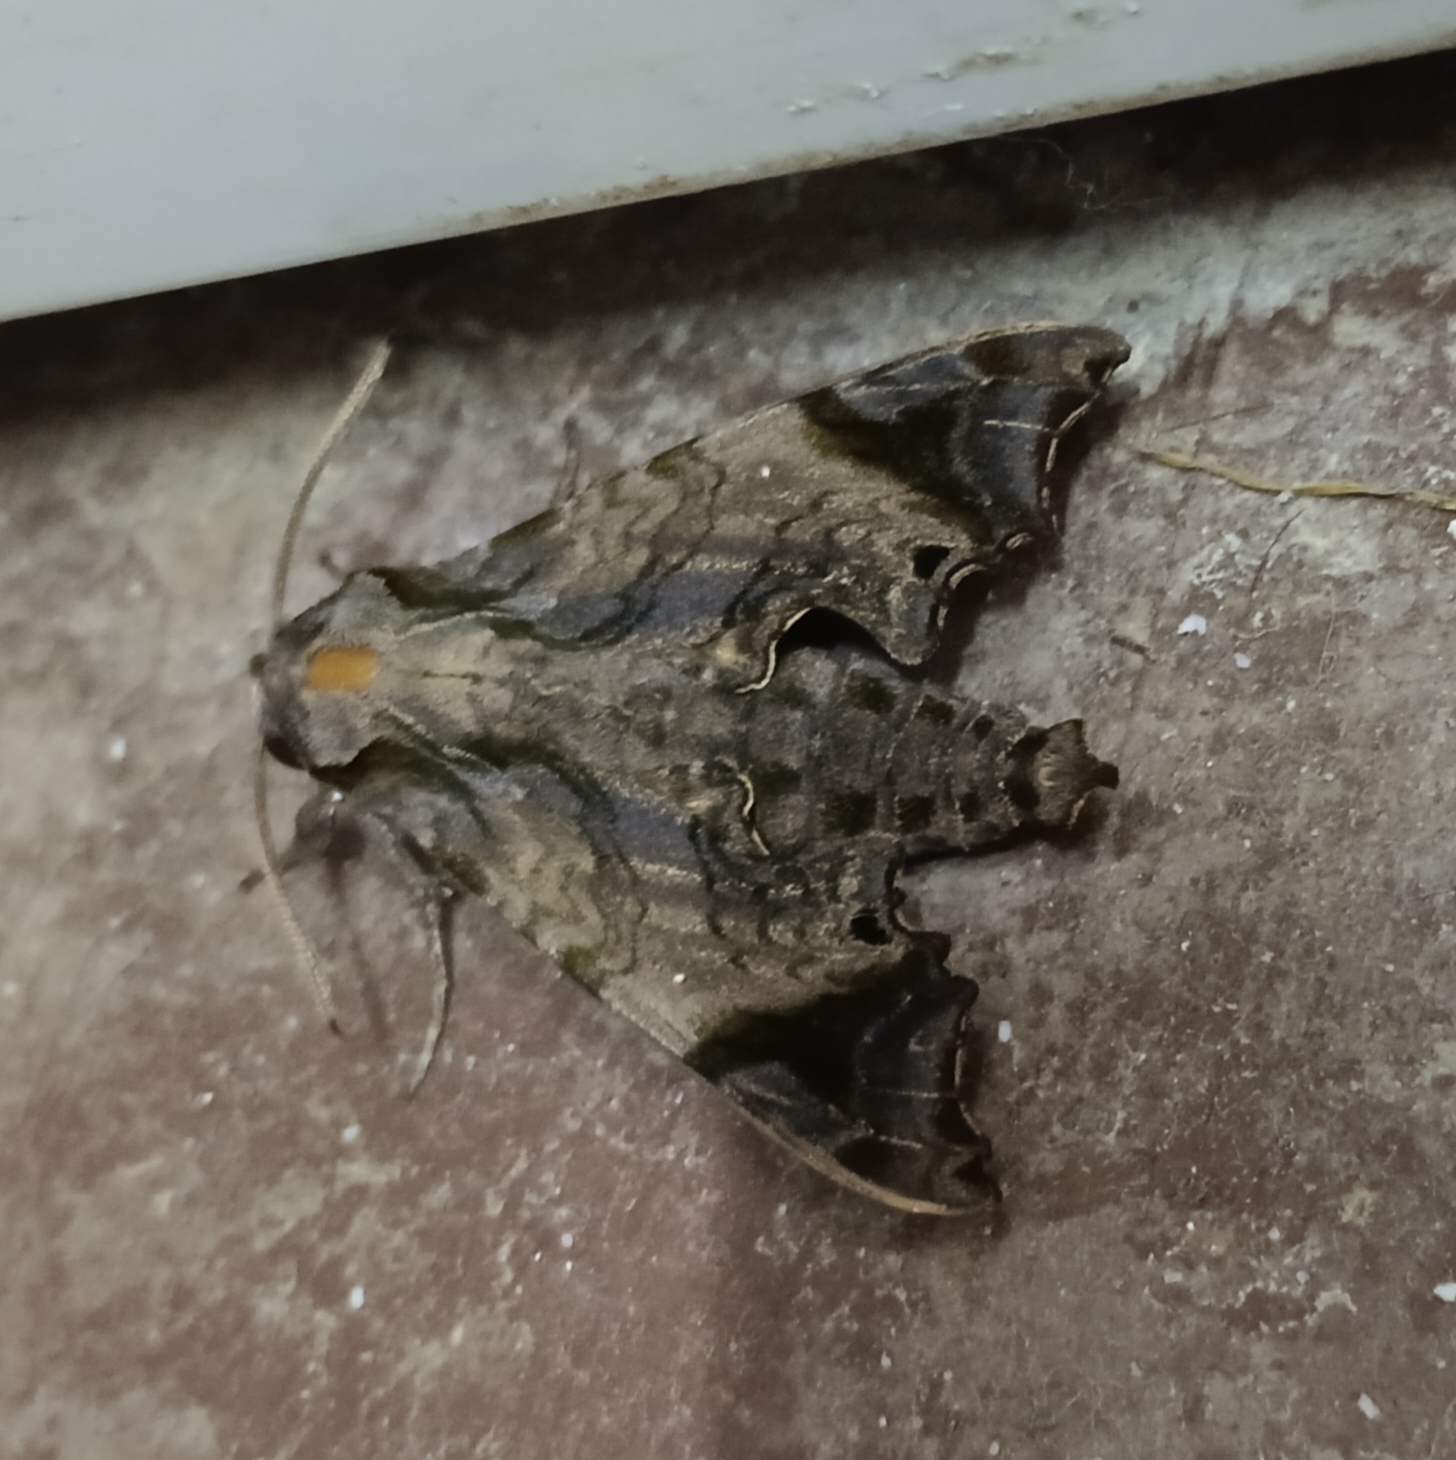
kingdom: Animalia
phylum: Arthropoda
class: Insecta
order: Lepidoptera
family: Sphingidae
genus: Temnora
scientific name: Temnora pylades
